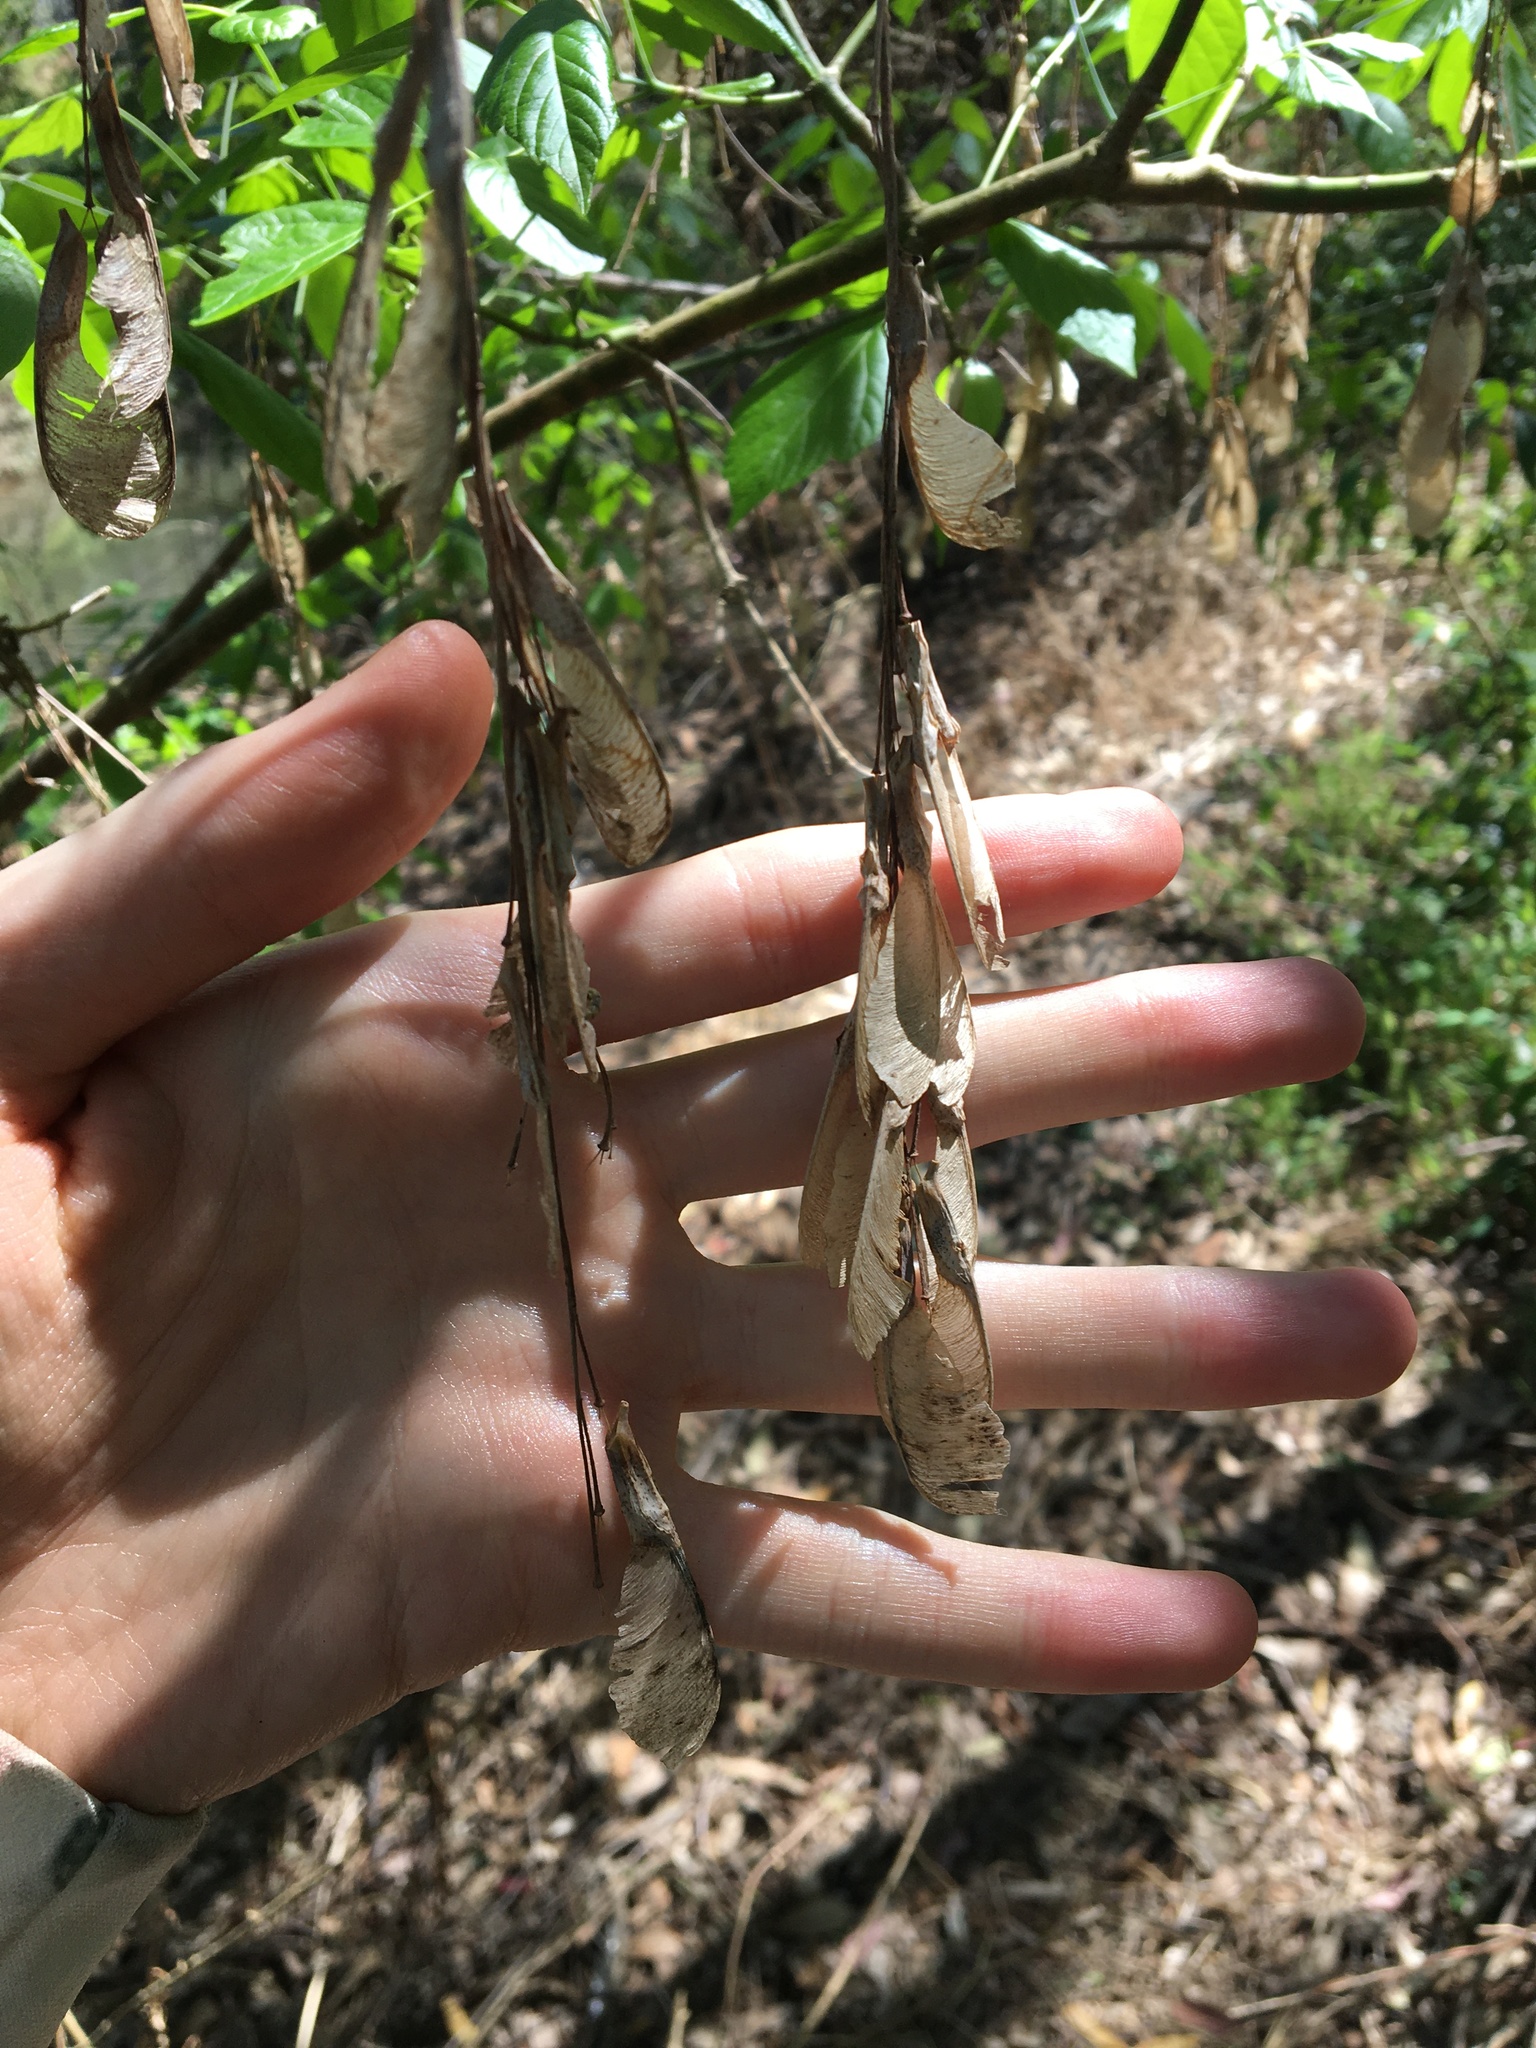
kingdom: Plantae
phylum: Tracheophyta
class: Magnoliopsida
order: Sapindales
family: Sapindaceae
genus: Acer
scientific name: Acer negundo
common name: Ashleaf maple
